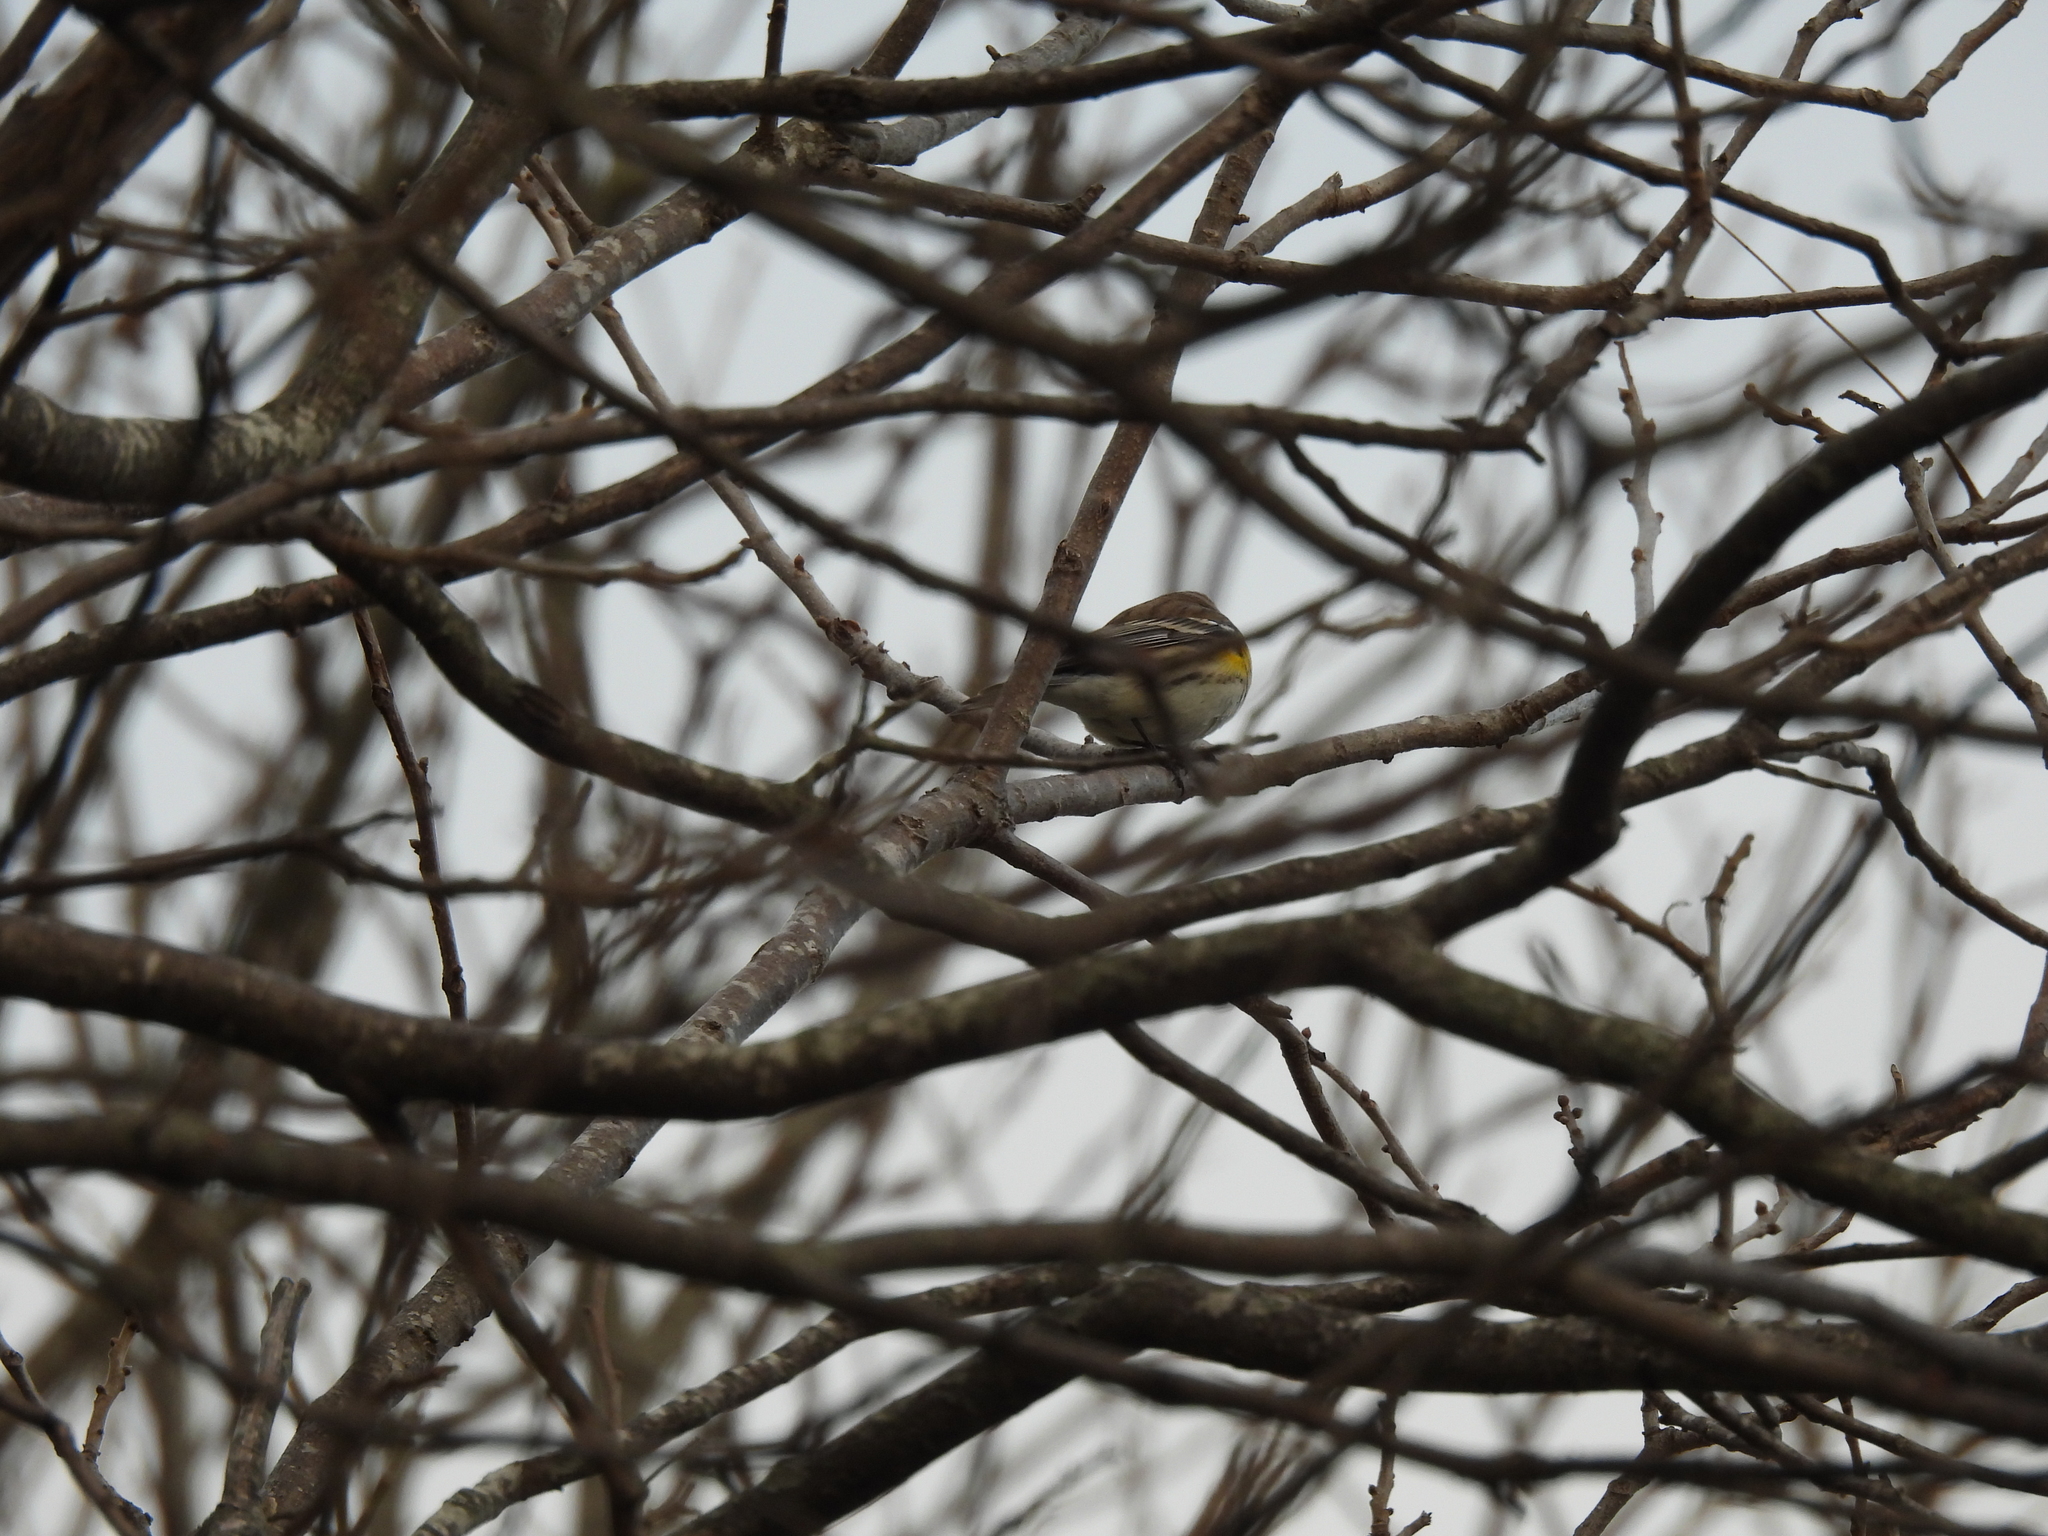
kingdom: Animalia
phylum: Chordata
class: Aves
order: Passeriformes
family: Parulidae
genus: Setophaga
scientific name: Setophaga coronata
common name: Myrtle warbler
